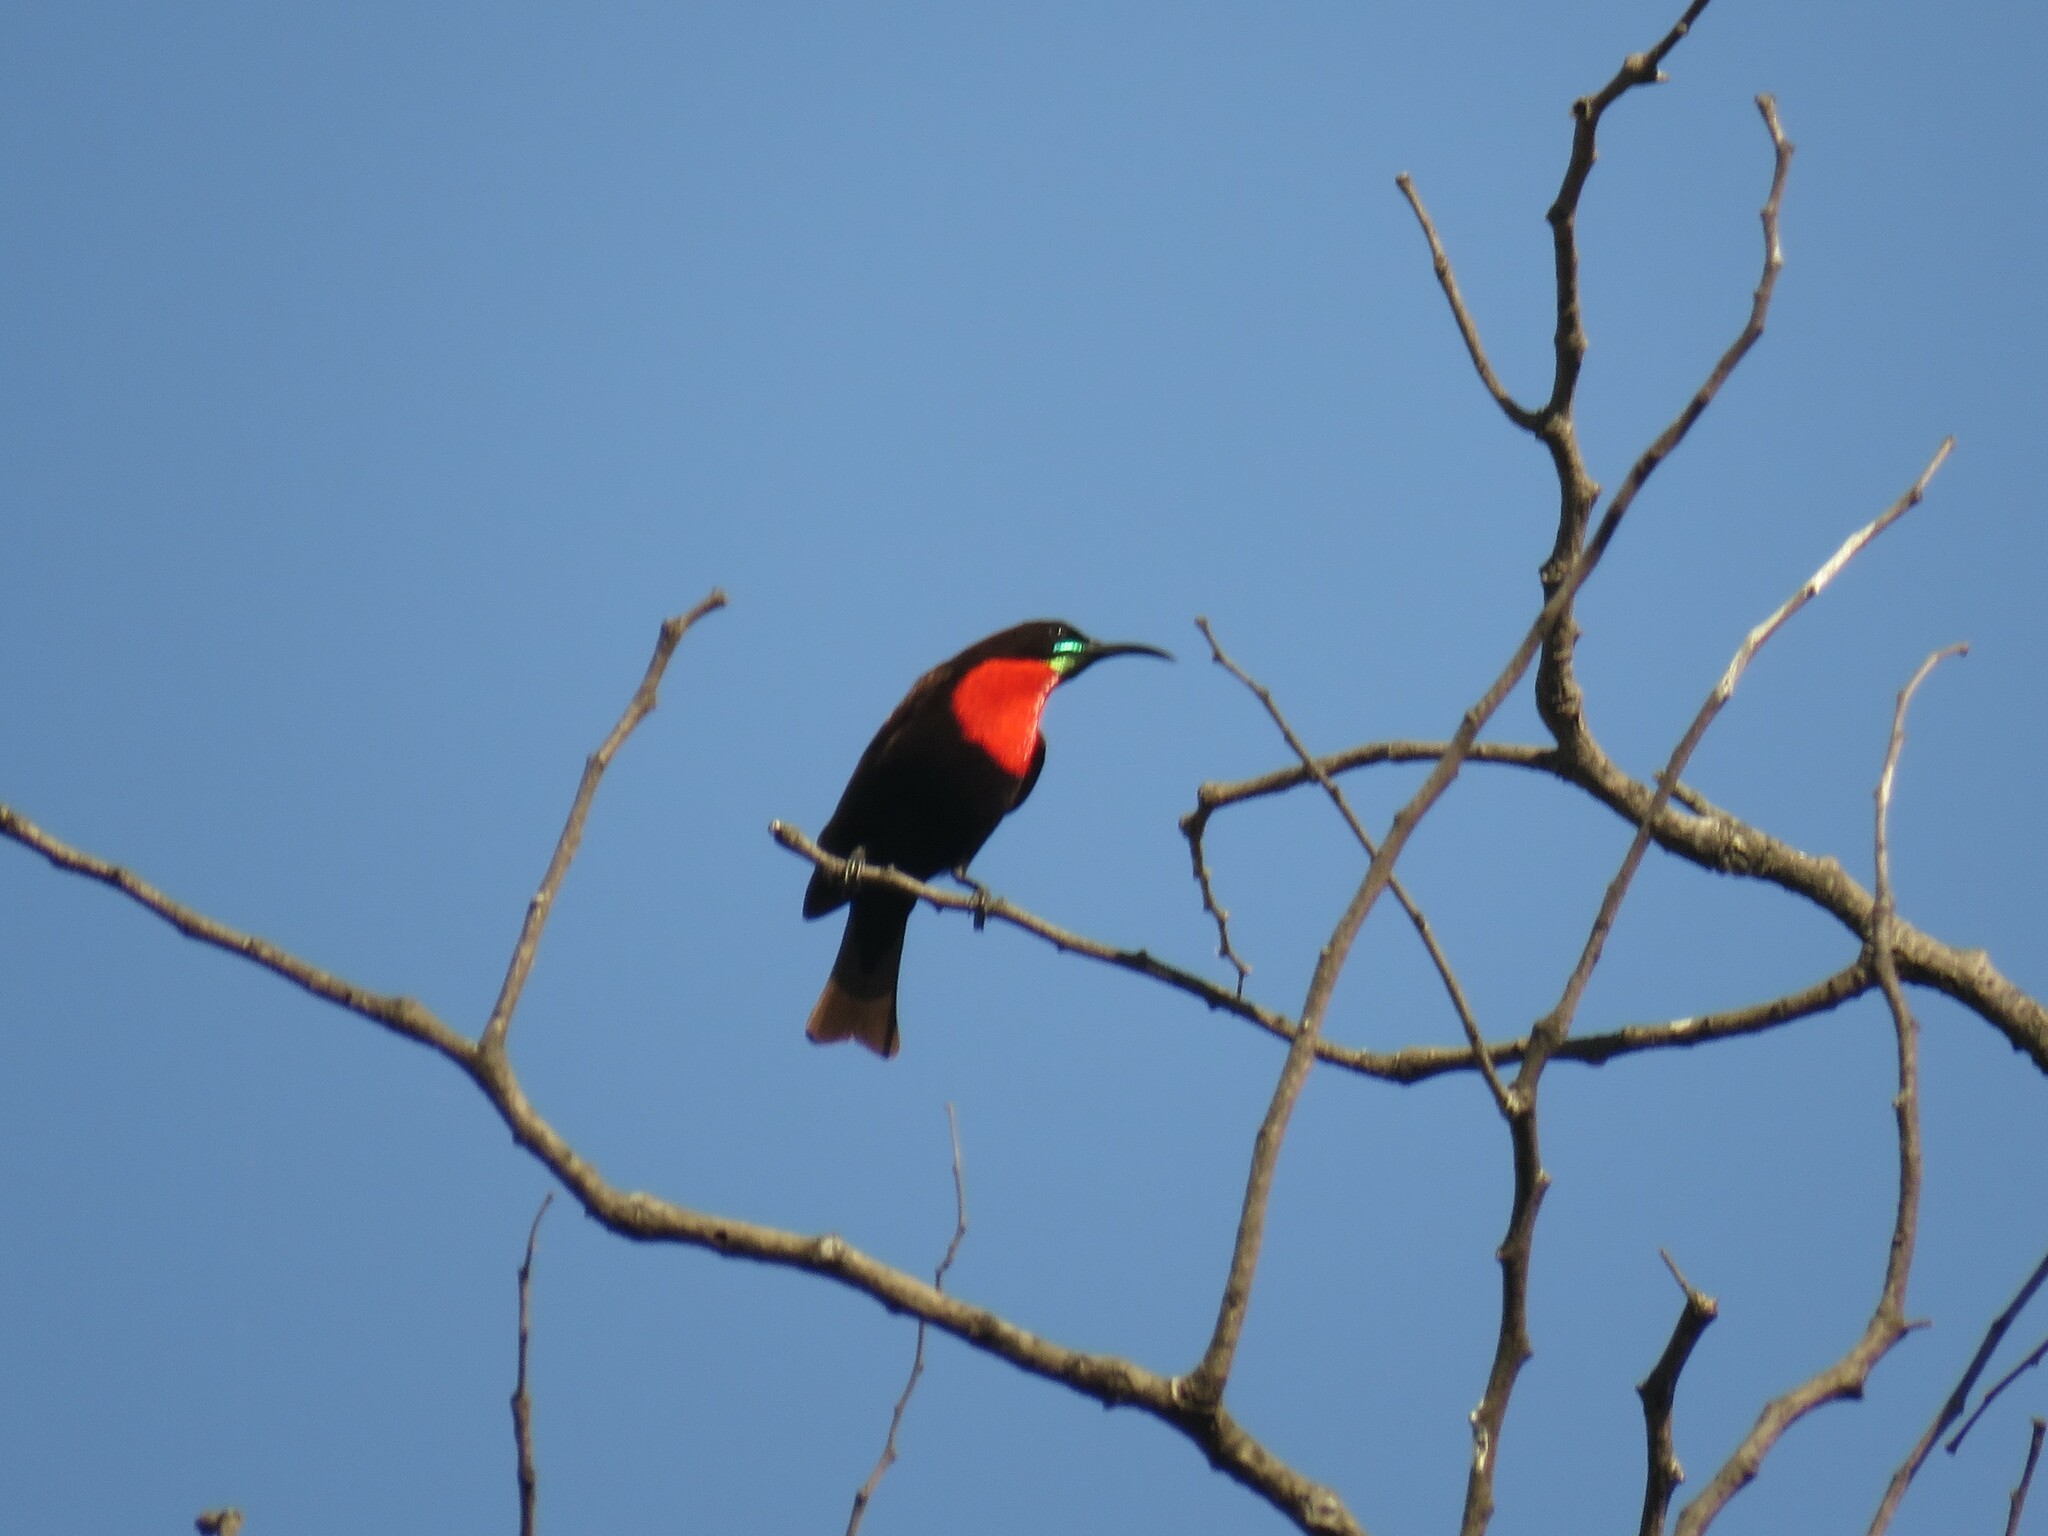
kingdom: Animalia
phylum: Chordata
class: Aves
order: Passeriformes
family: Nectariniidae
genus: Chalcomitra
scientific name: Chalcomitra senegalensis
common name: Scarlet-chested sunbird
